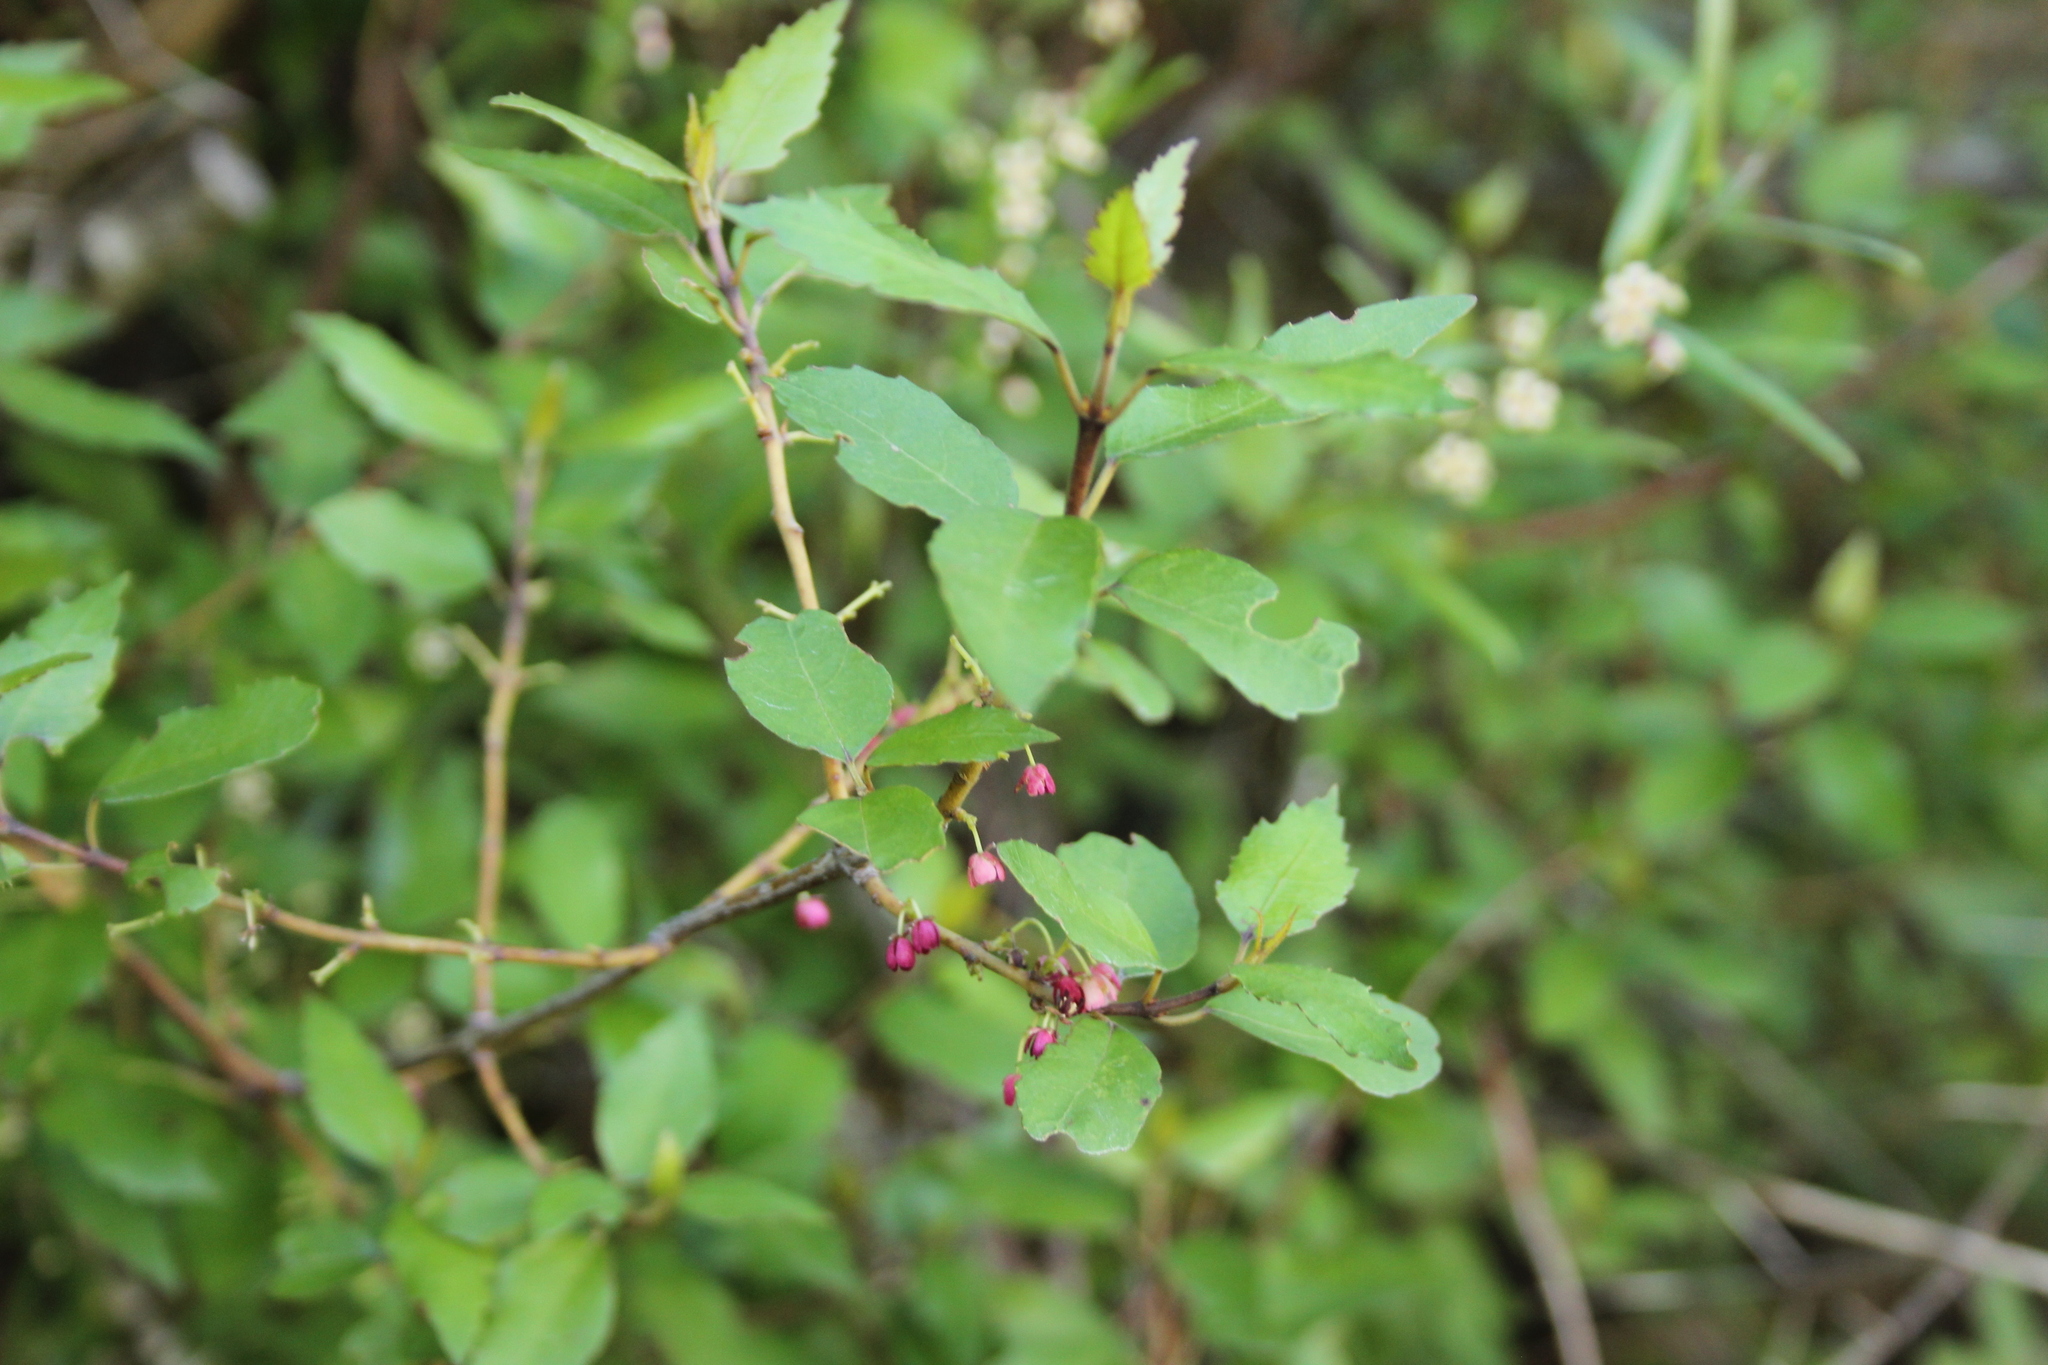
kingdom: Plantae
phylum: Tracheophyta
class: Magnoliopsida
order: Oxalidales
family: Elaeocarpaceae
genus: Aristotelia
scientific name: Aristotelia fruticosa
